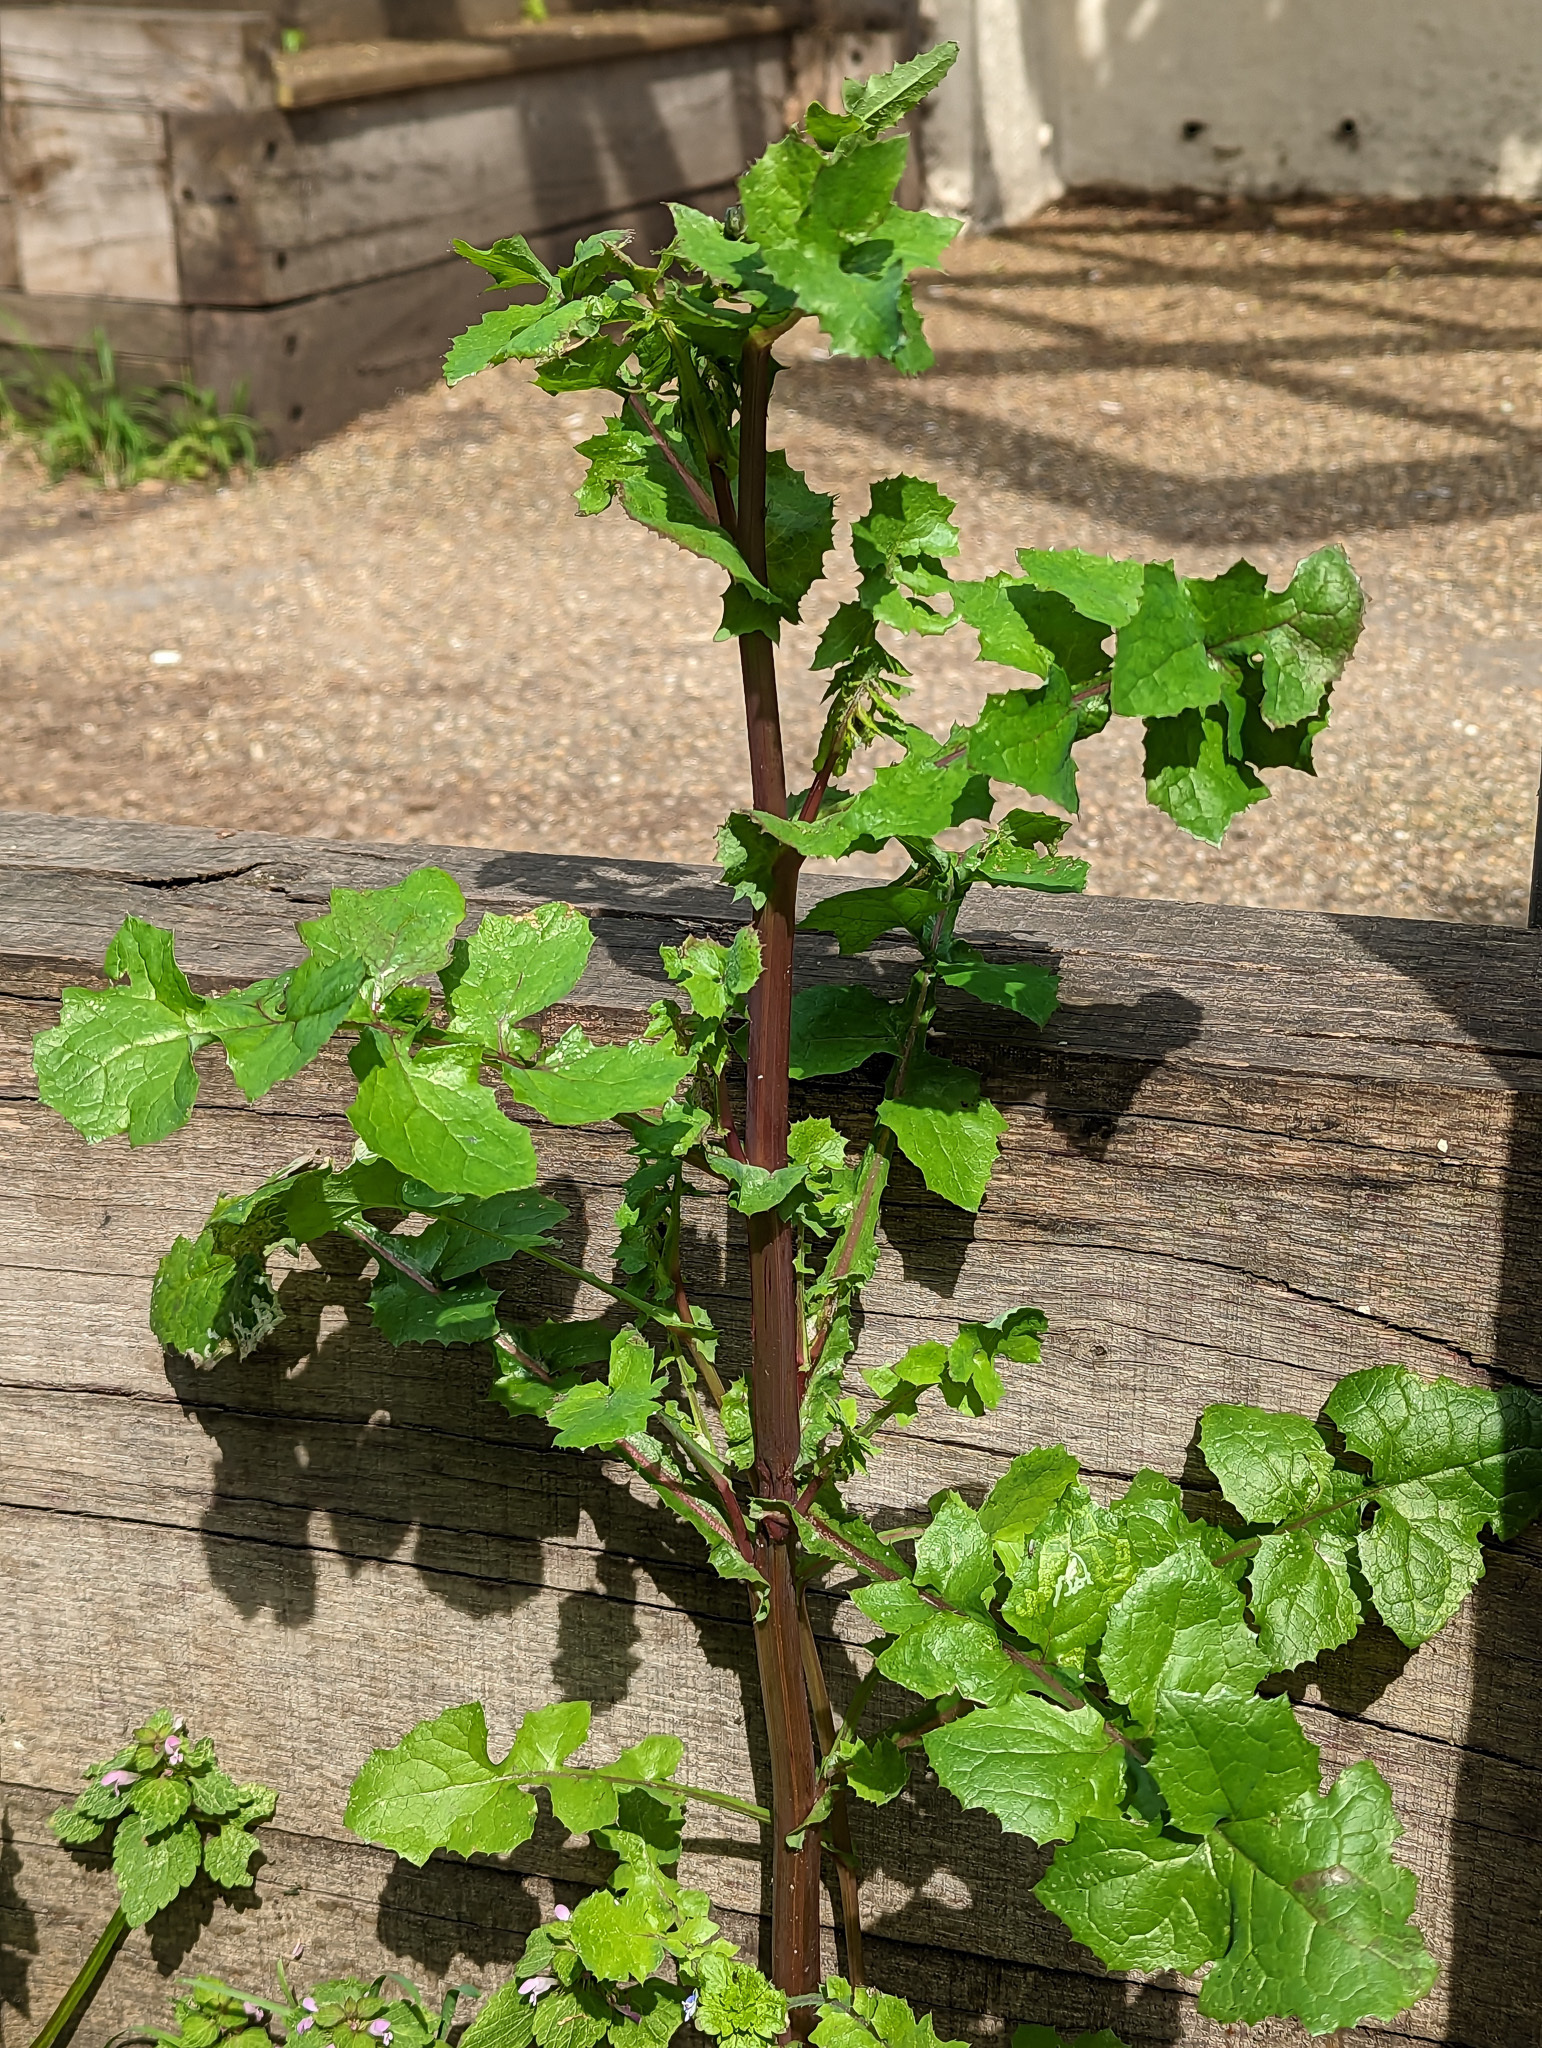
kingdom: Plantae
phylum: Tracheophyta
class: Magnoliopsida
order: Asterales
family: Asteraceae
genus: Sonchus
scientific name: Sonchus oleraceus
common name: Common sowthistle
